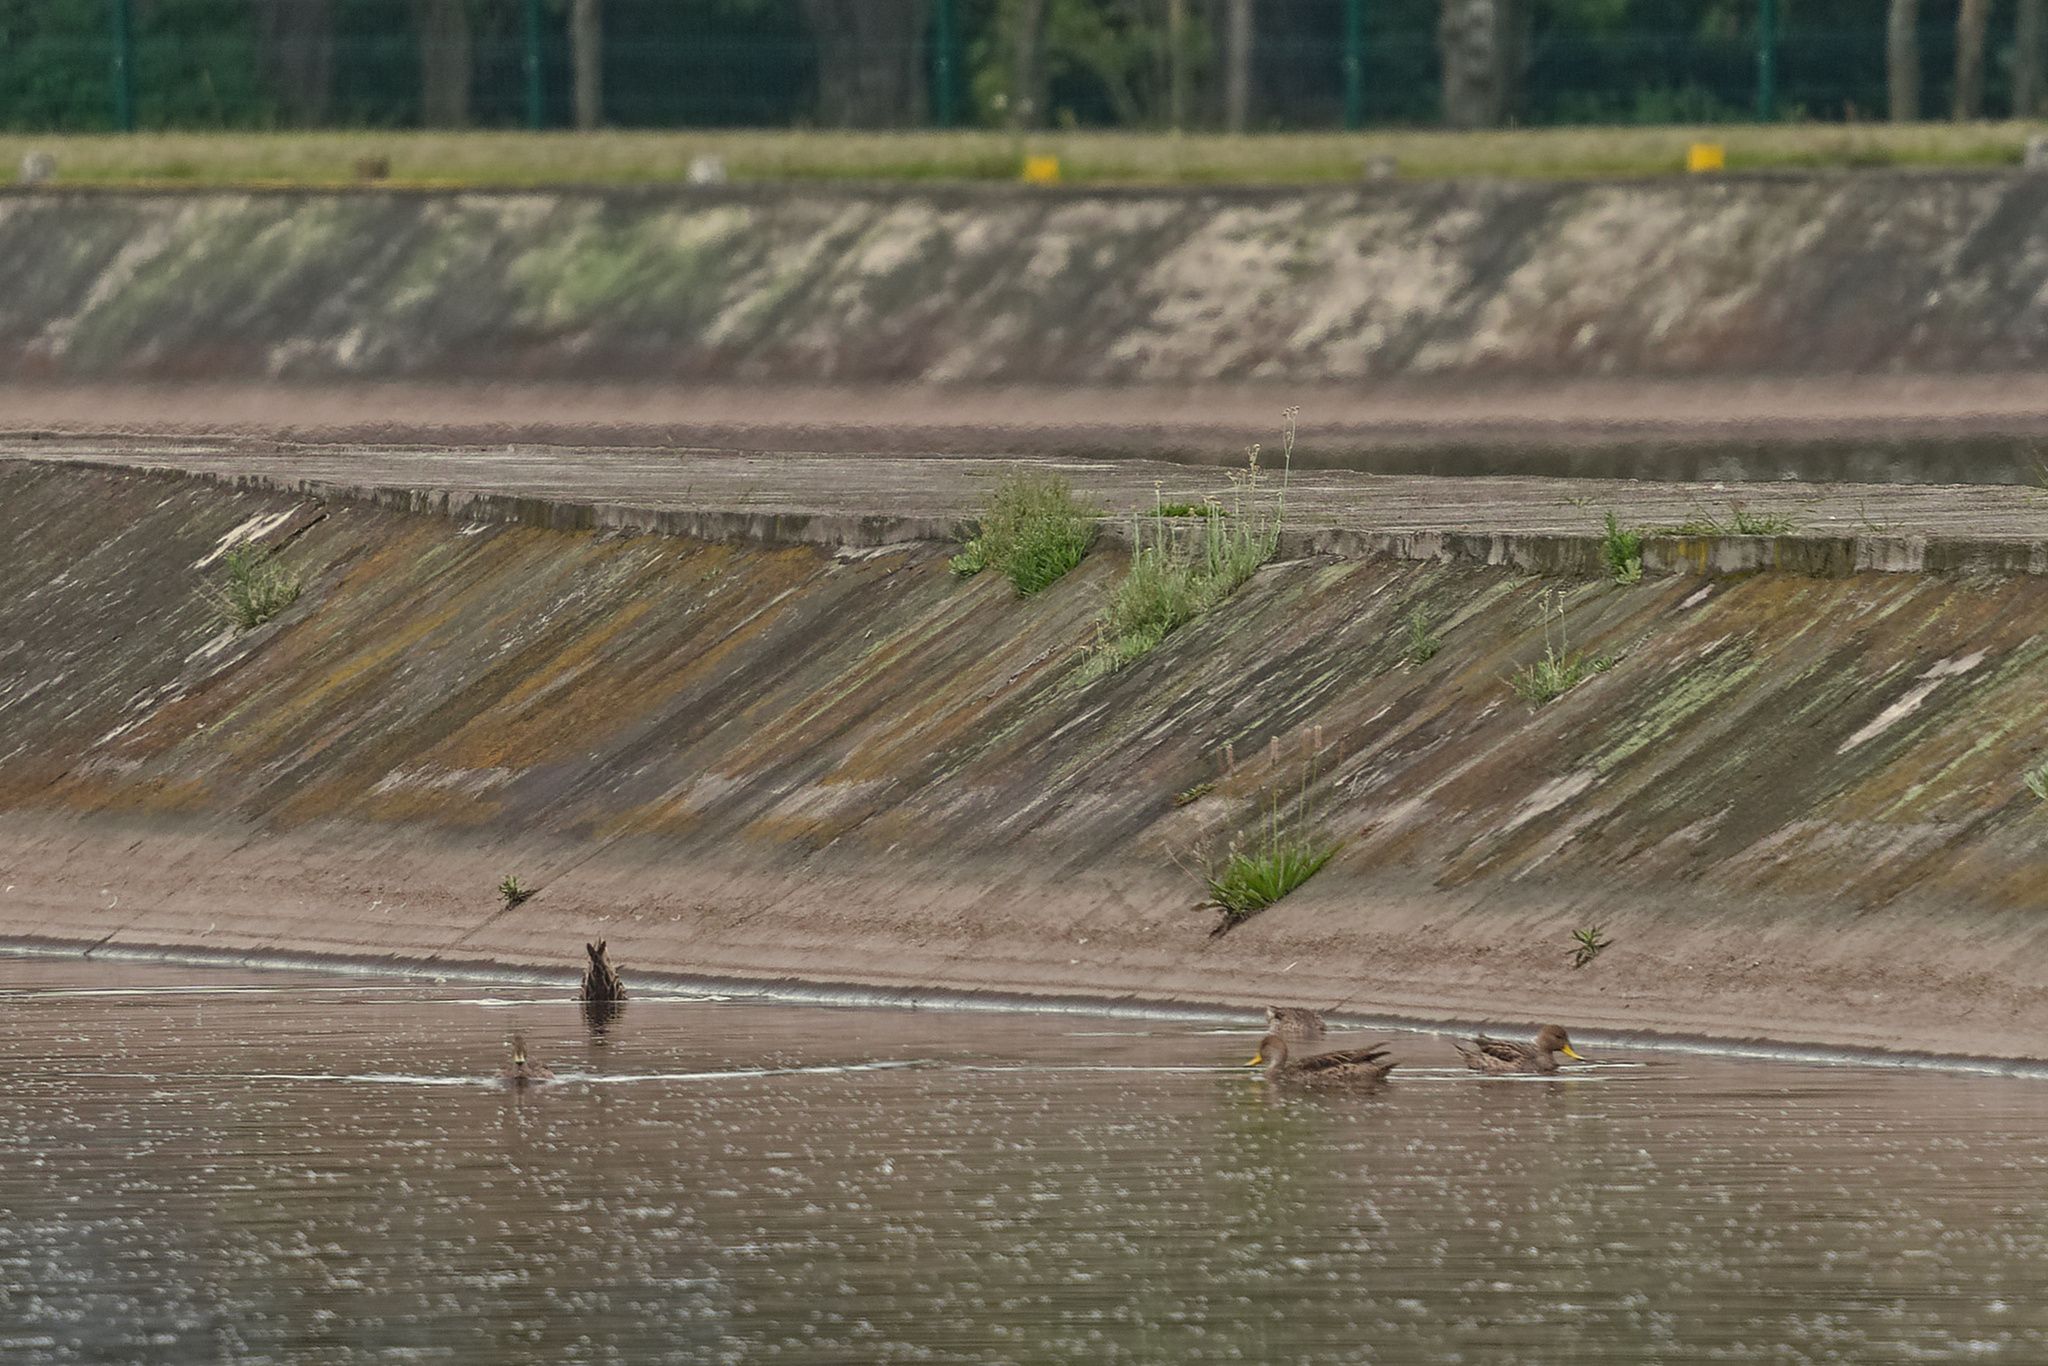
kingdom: Animalia
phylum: Chordata
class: Aves
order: Anseriformes
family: Anatidae
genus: Anas
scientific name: Anas georgica
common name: Yellow-billed pintail
